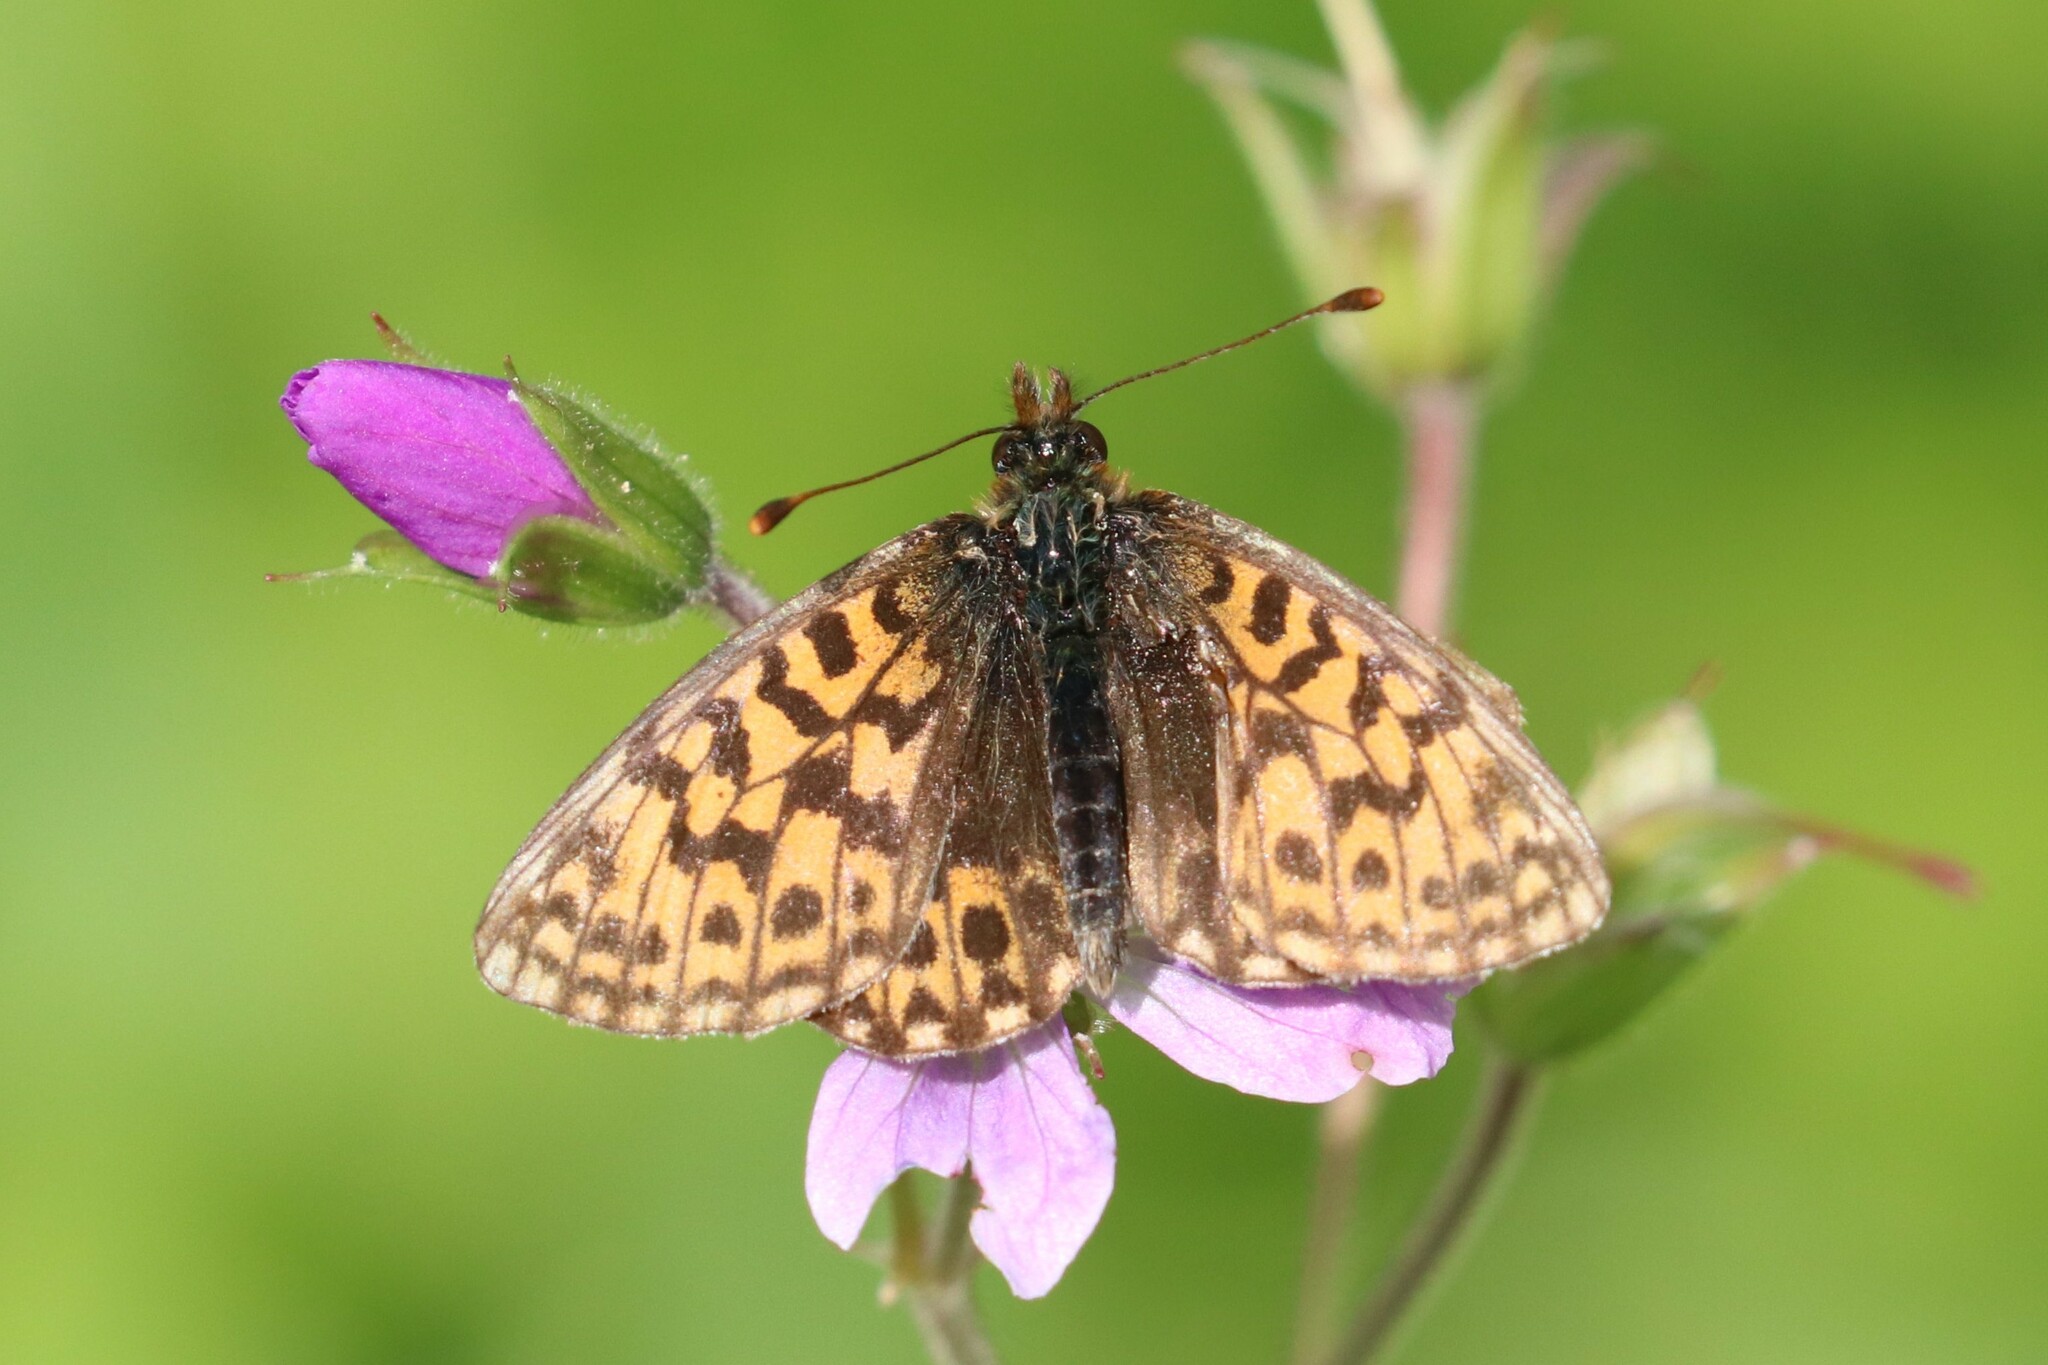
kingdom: Animalia
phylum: Arthropoda
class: Insecta
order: Lepidoptera
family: Nymphalidae
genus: Boloria
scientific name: Boloria dia
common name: Weaver's fritillary
